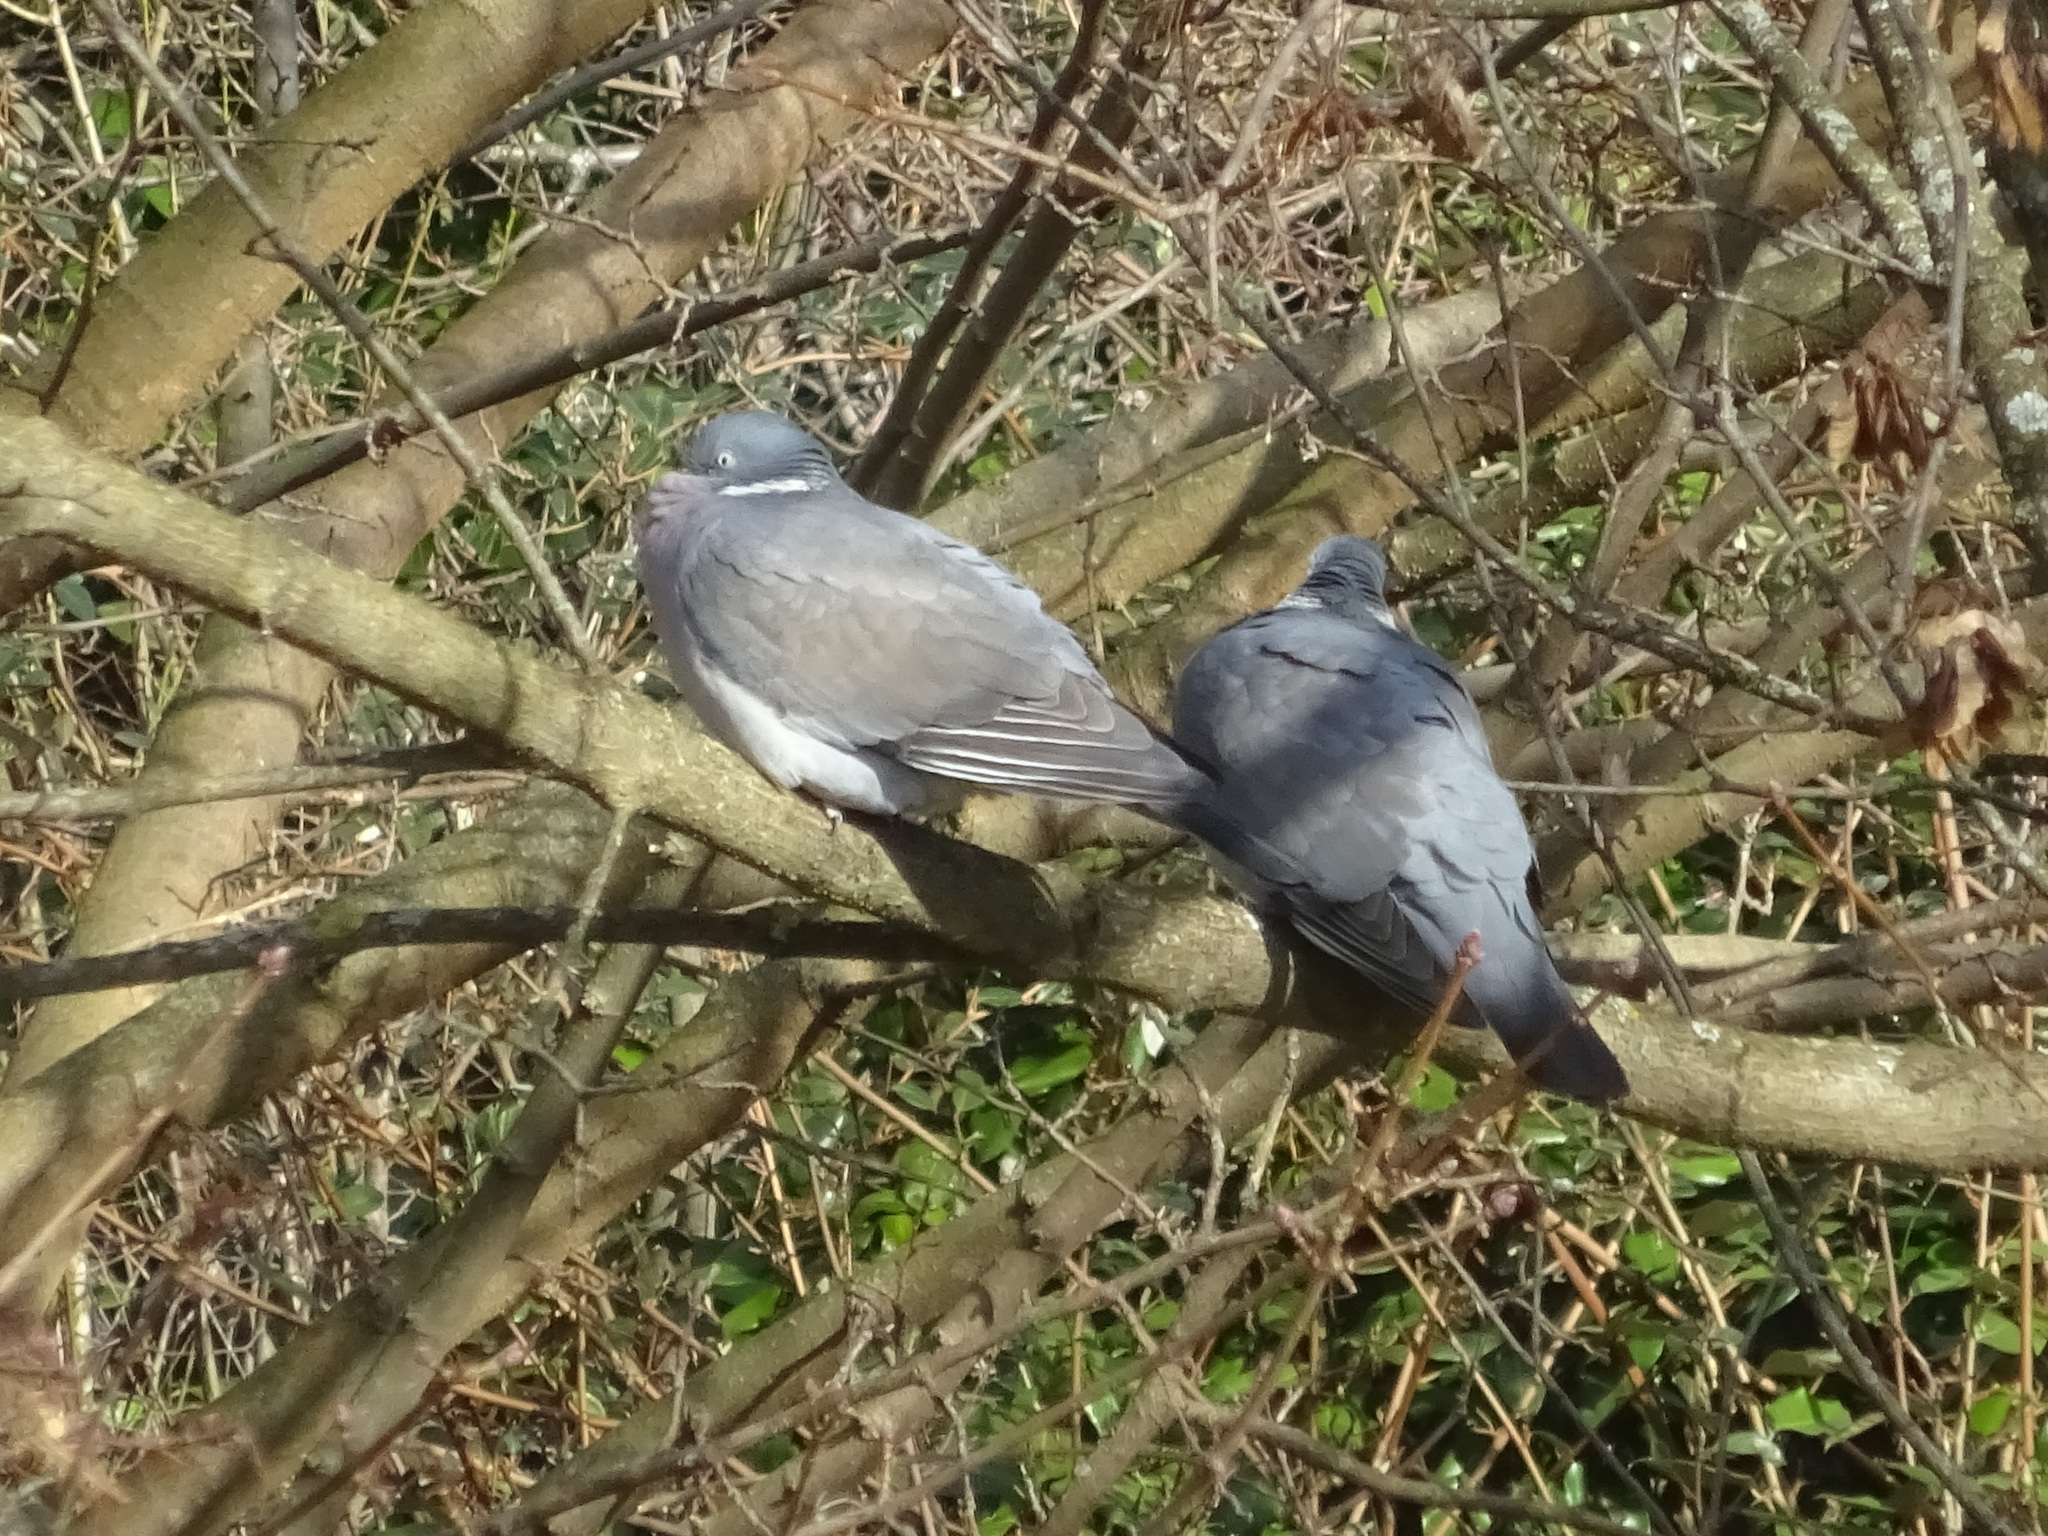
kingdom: Animalia
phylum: Chordata
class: Aves
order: Columbiformes
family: Columbidae
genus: Columba
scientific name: Columba palumbus
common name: Common wood pigeon
